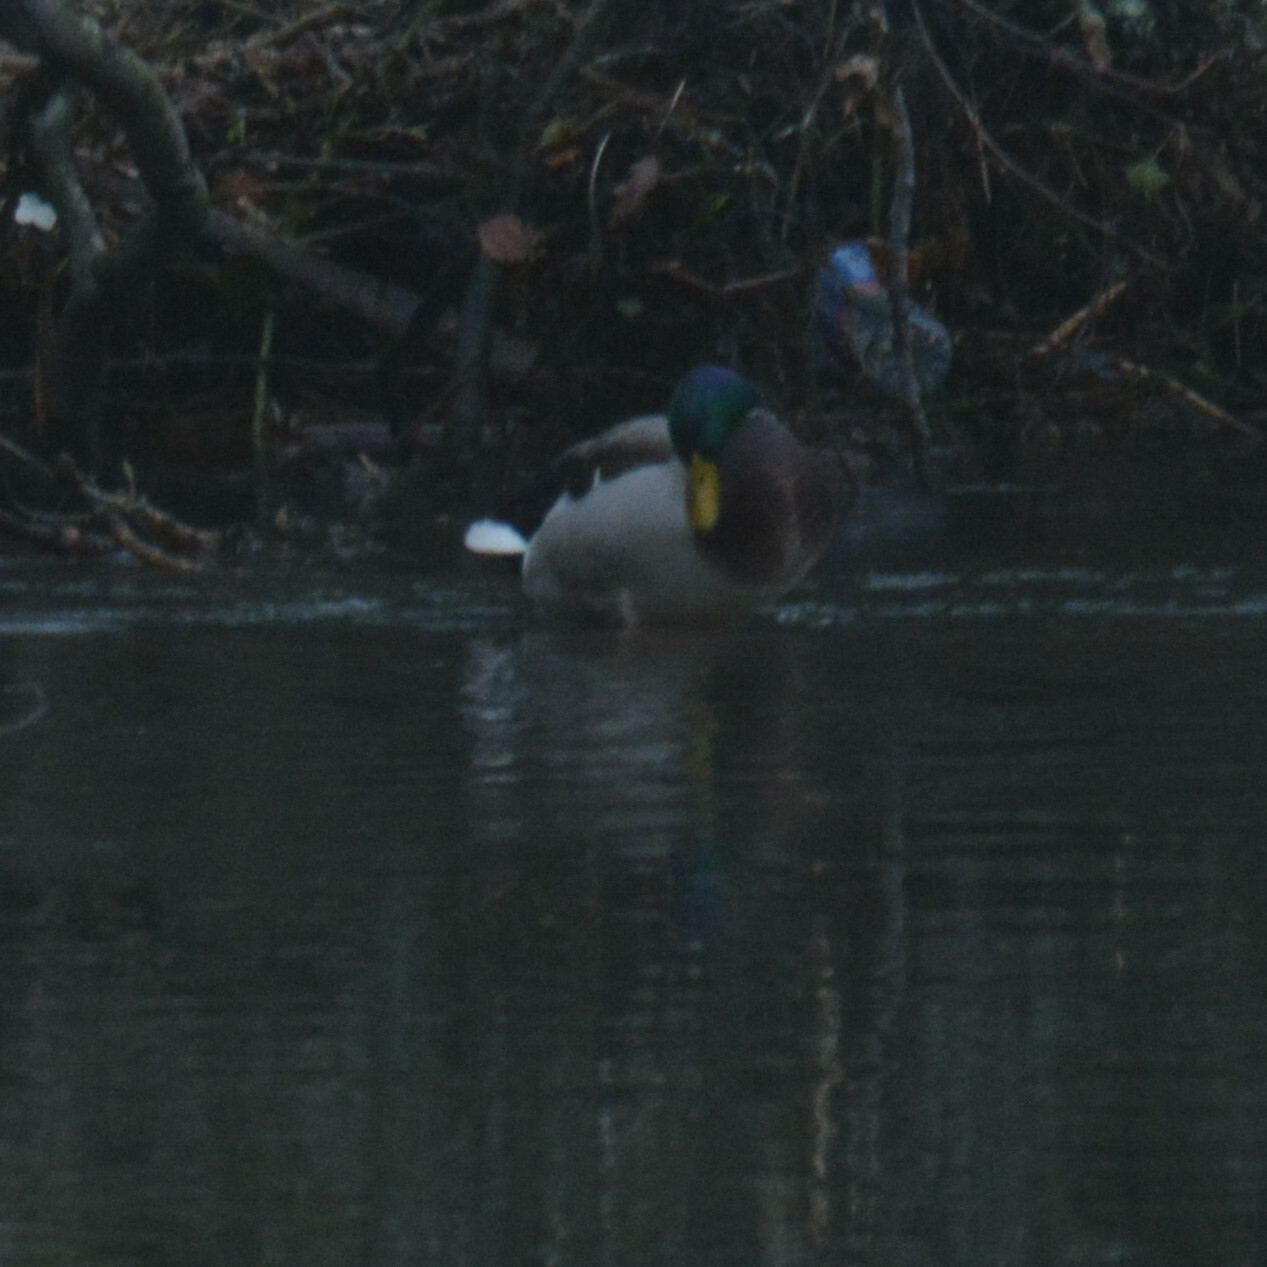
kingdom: Animalia
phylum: Chordata
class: Aves
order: Anseriformes
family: Anatidae
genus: Anas
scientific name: Anas platyrhynchos
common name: Mallard
